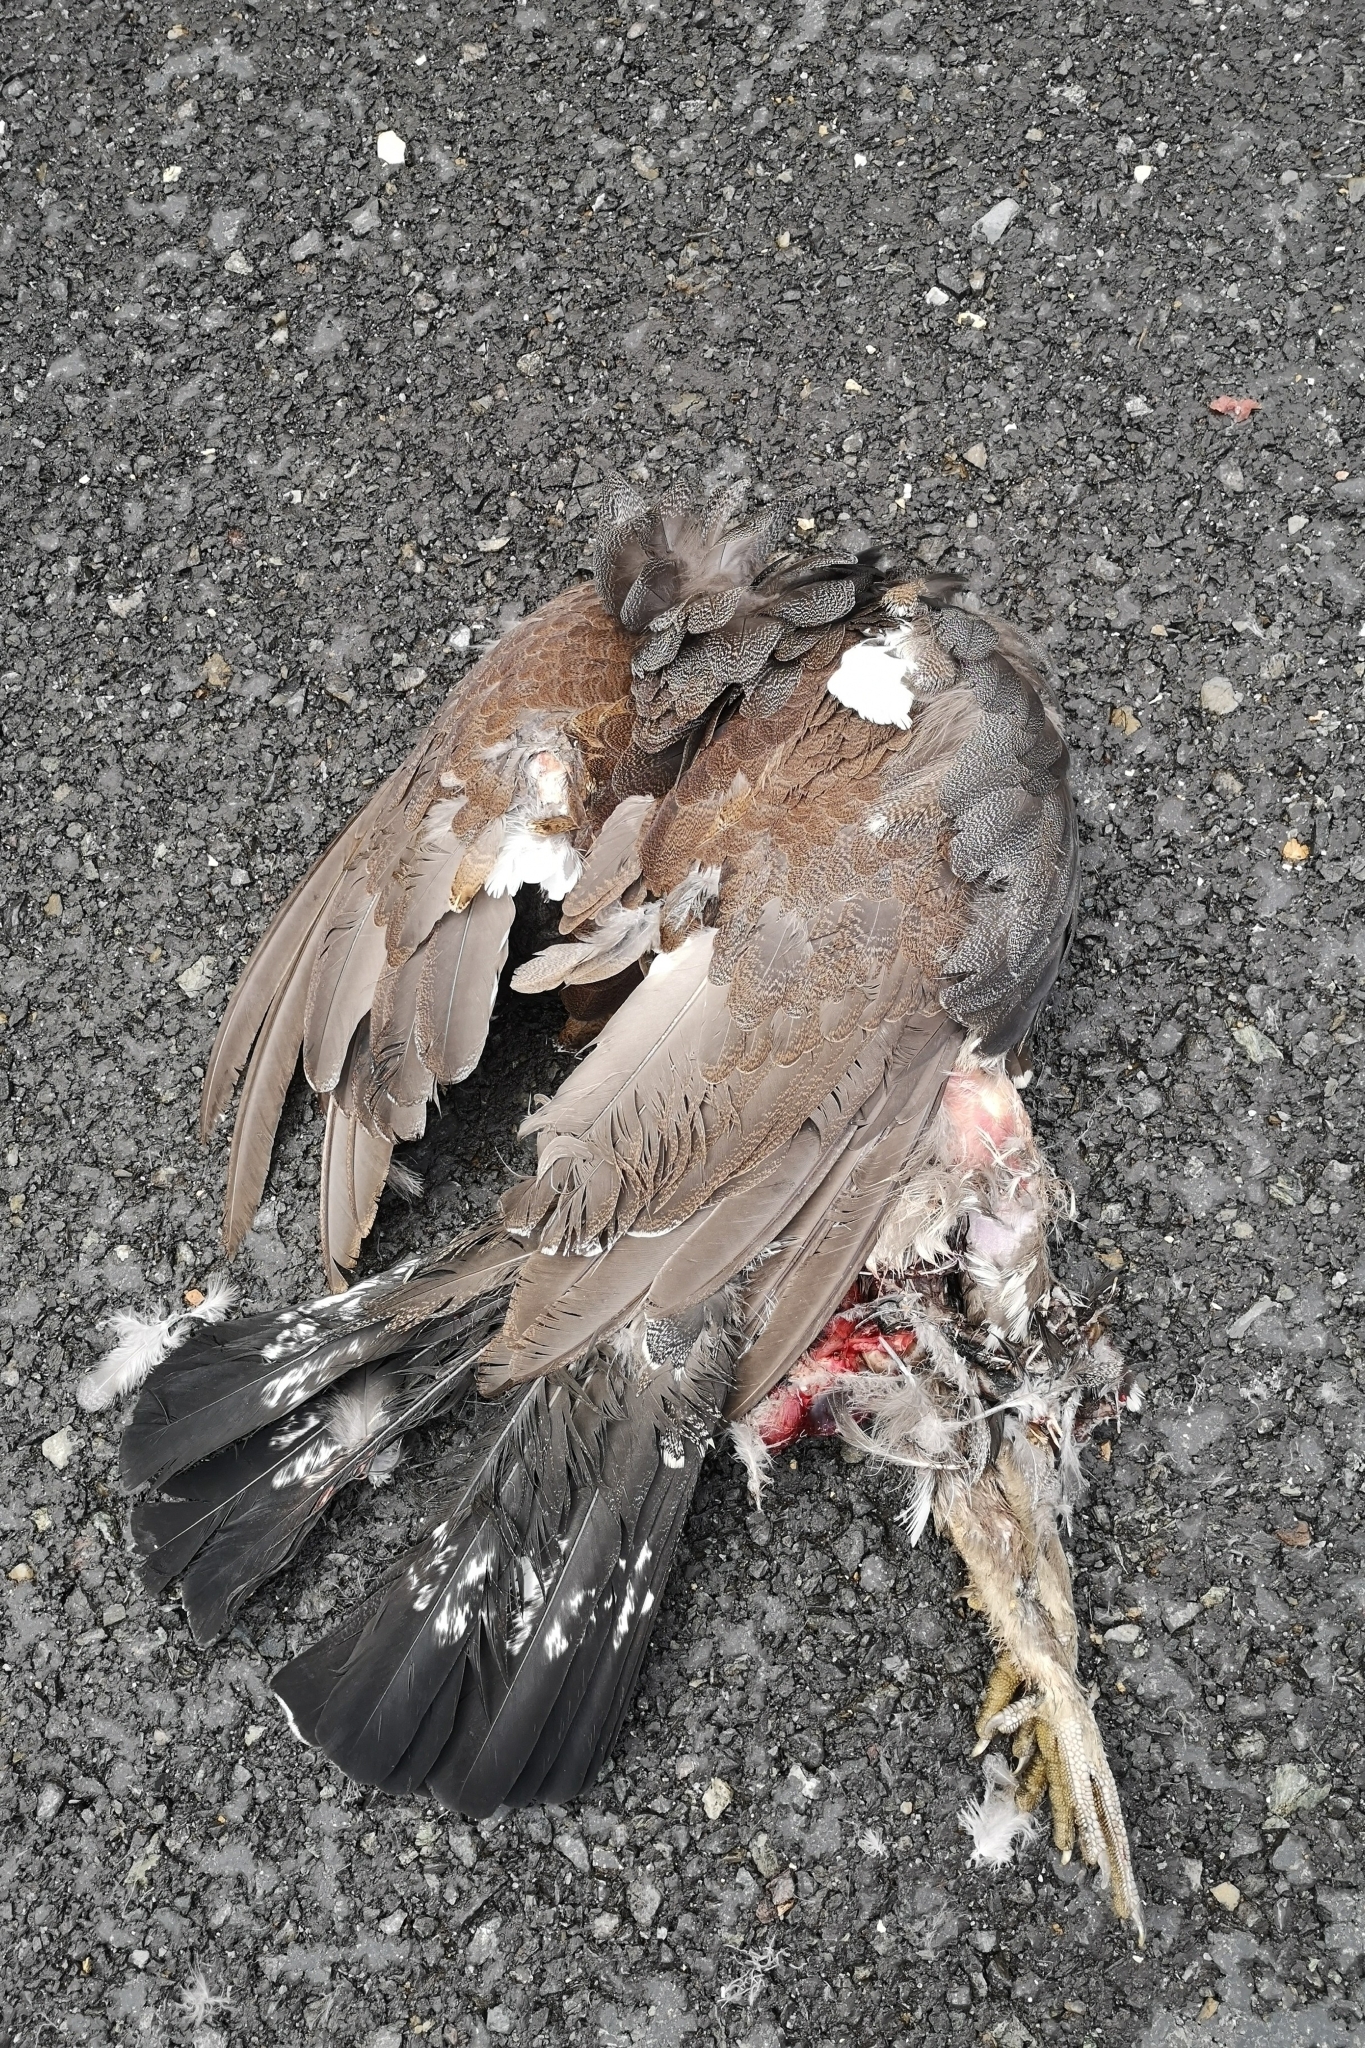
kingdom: Animalia
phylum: Chordata
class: Aves
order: Galliformes
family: Phasianidae
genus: Tetrao
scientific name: Tetrao urogallus
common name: Western capercaillie
